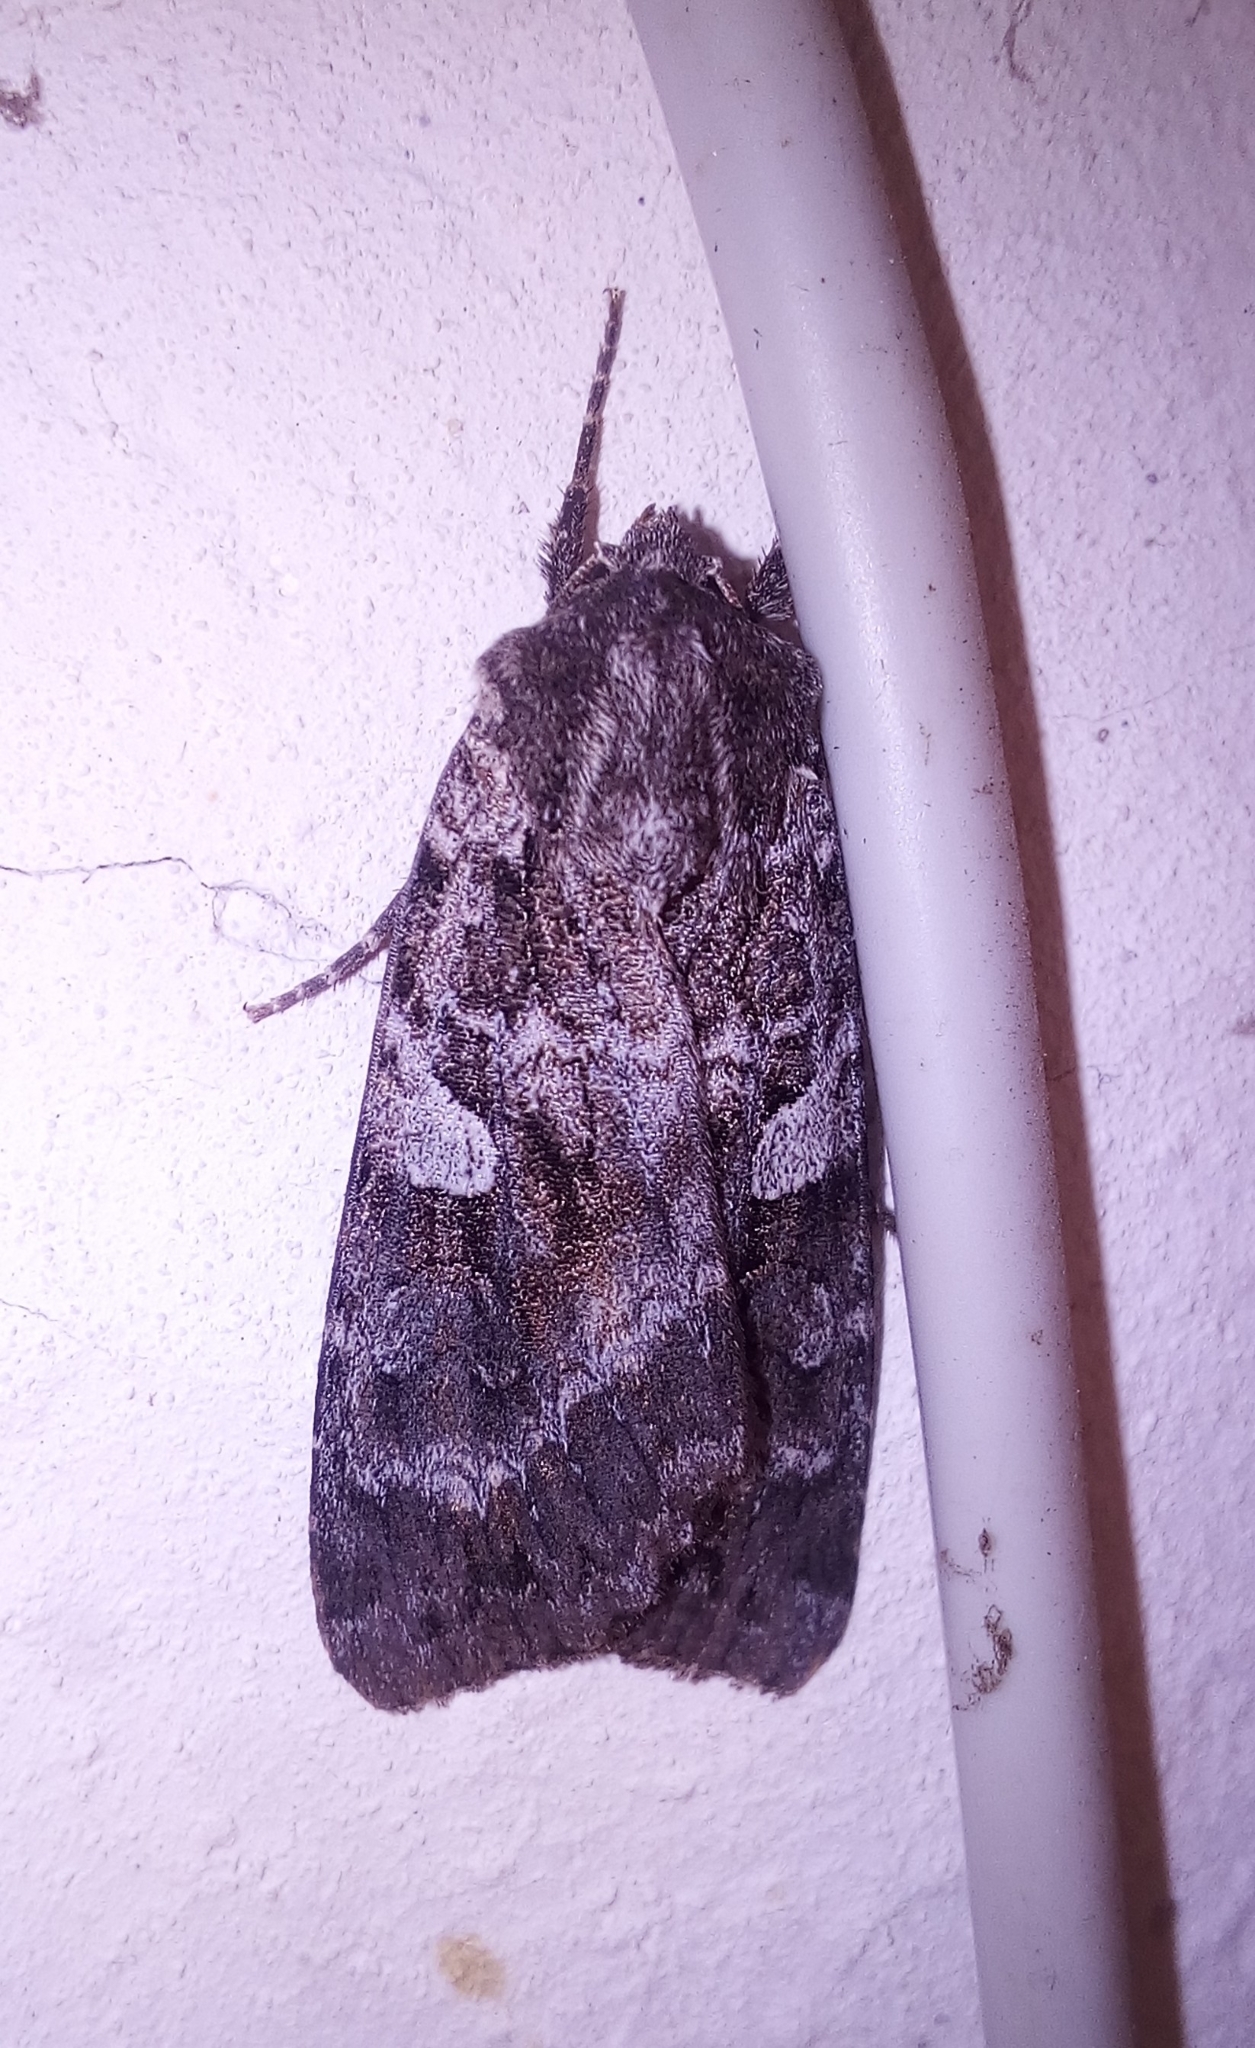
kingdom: Animalia
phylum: Arthropoda
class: Insecta
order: Lepidoptera
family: Noctuidae
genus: Eurois
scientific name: Eurois occulta
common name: Great brocade
